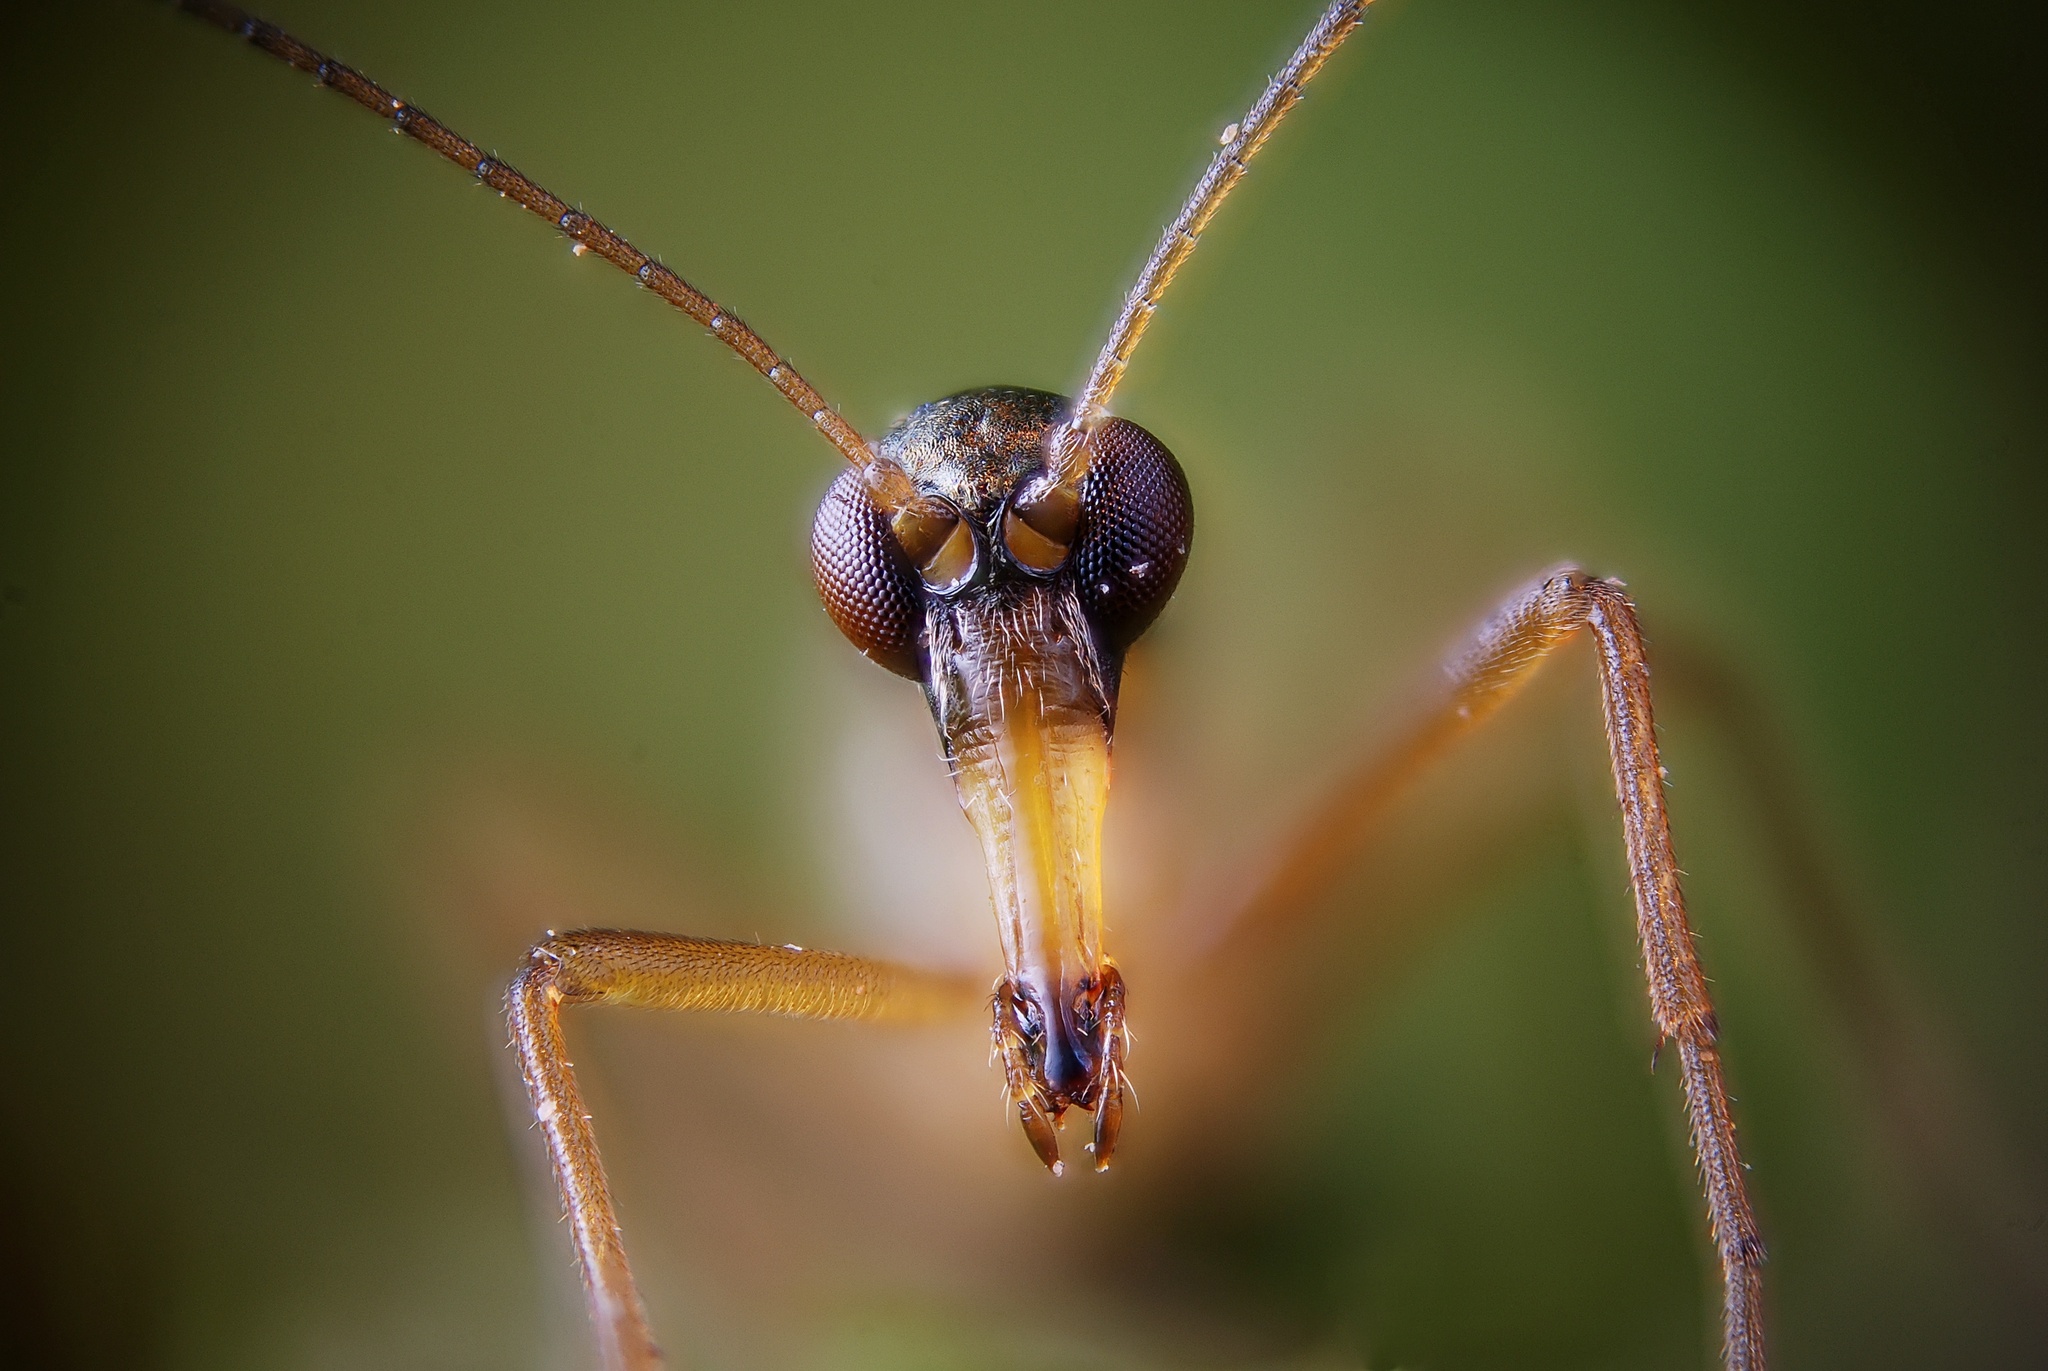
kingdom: Animalia
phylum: Arthropoda
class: Insecta
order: Mecoptera
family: Boreidae
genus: Boreus
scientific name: Boreus hyemalis
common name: Snow flea
